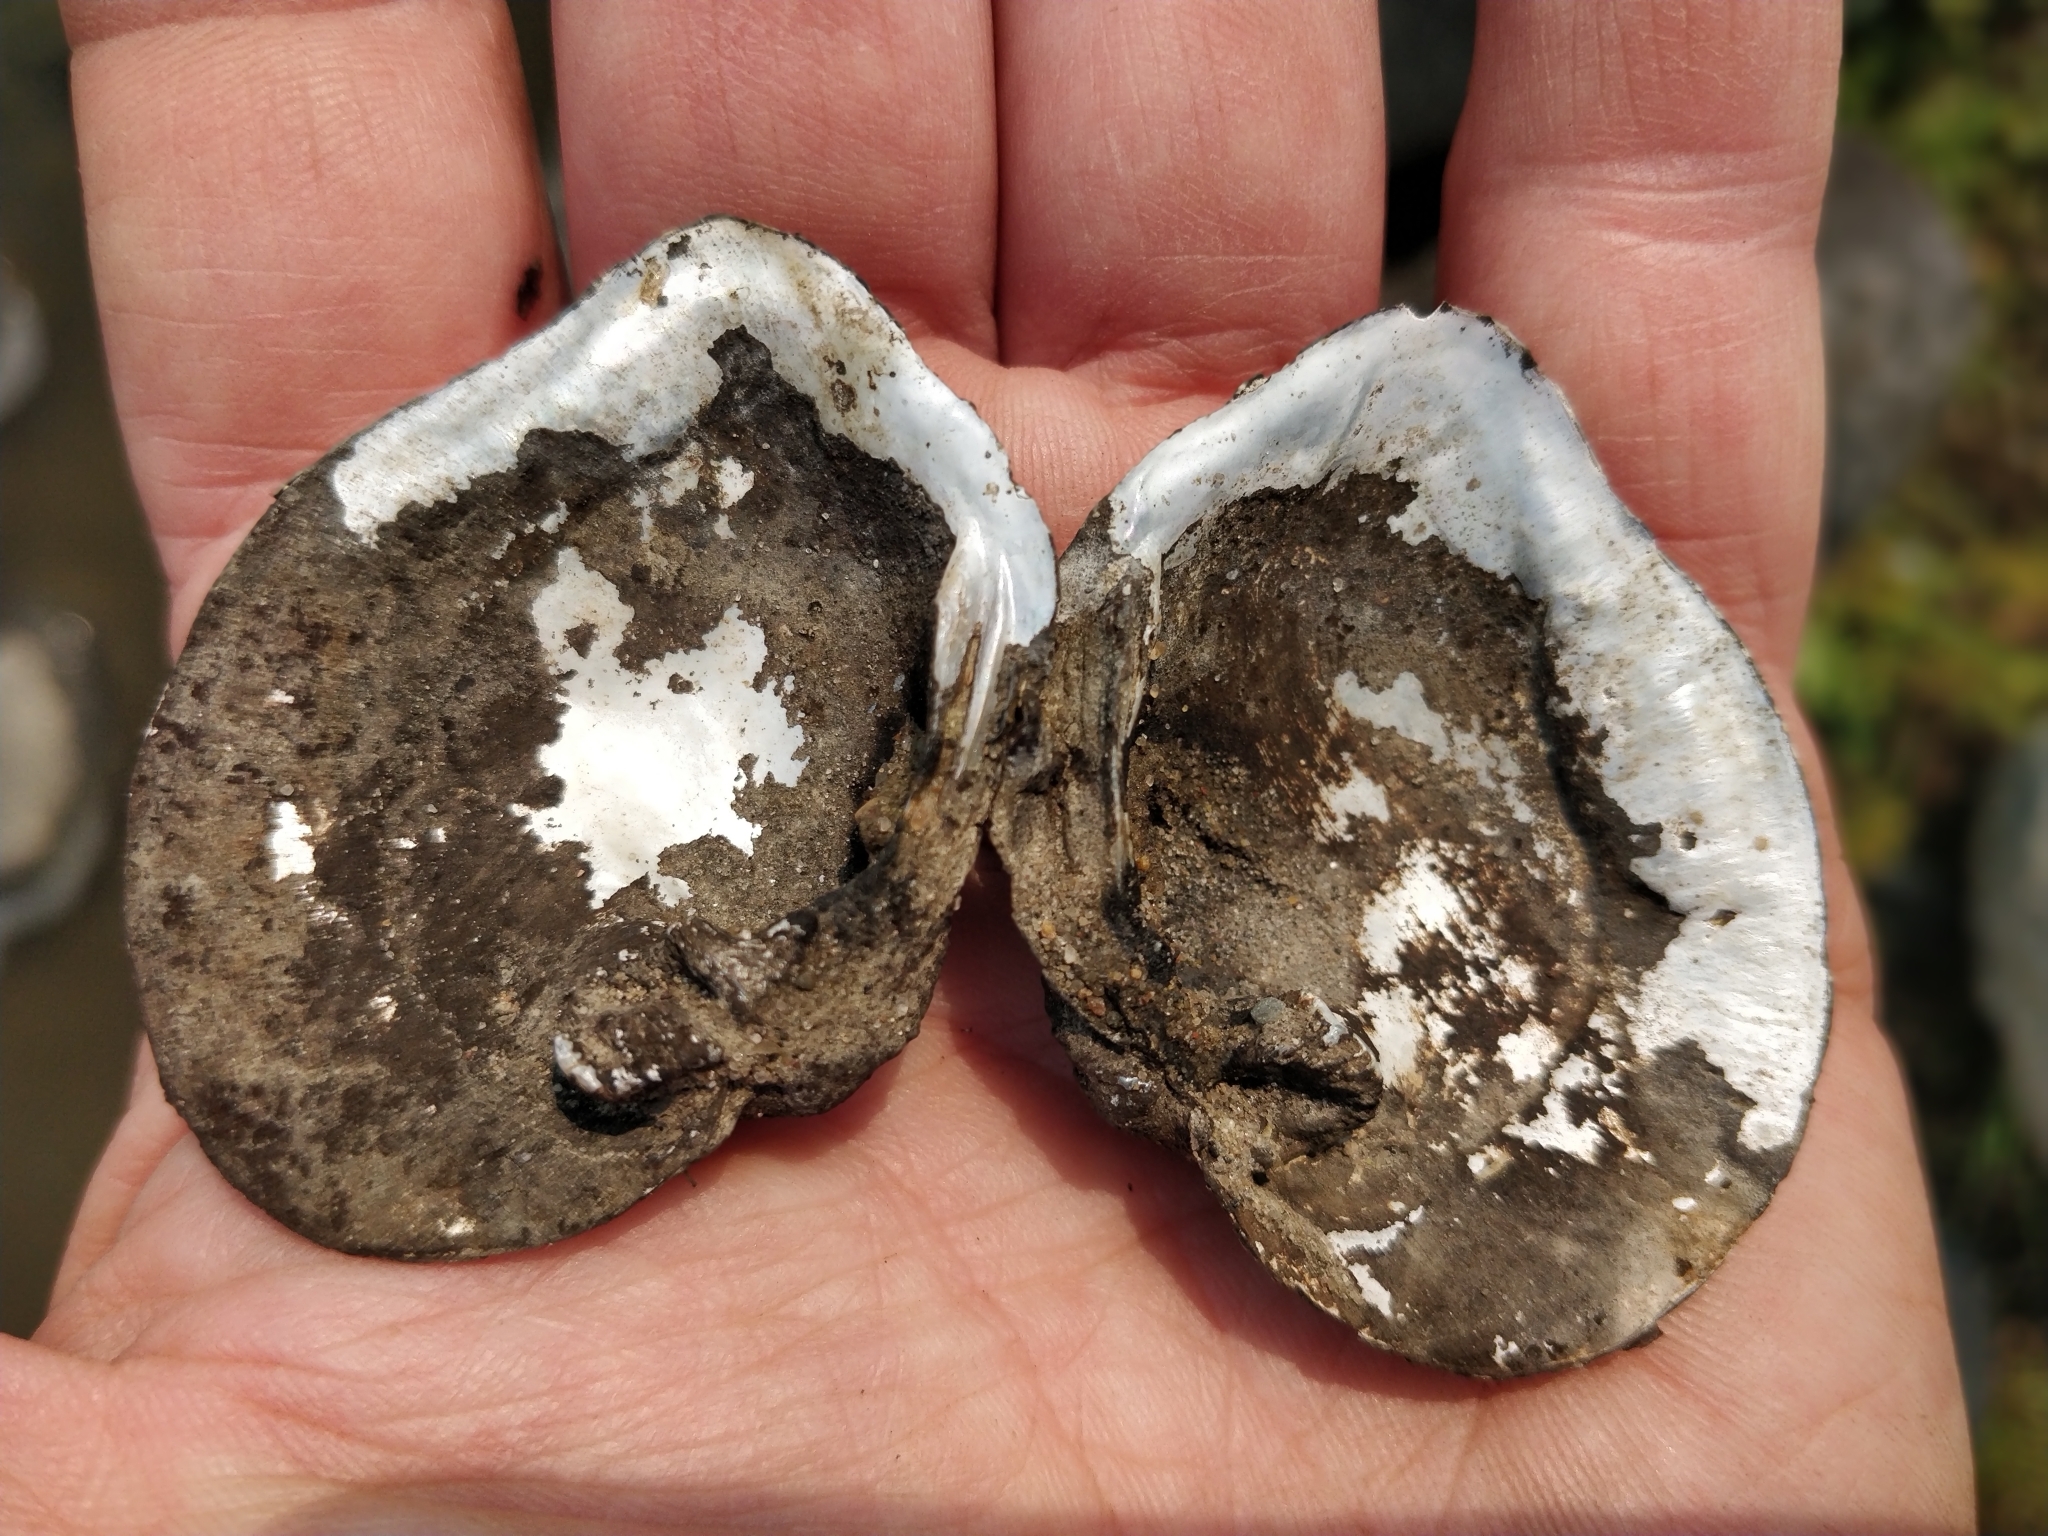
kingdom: Animalia
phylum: Mollusca
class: Bivalvia
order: Unionida
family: Unionidae
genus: Quadrula
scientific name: Quadrula quadrula
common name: Mapleleaf
